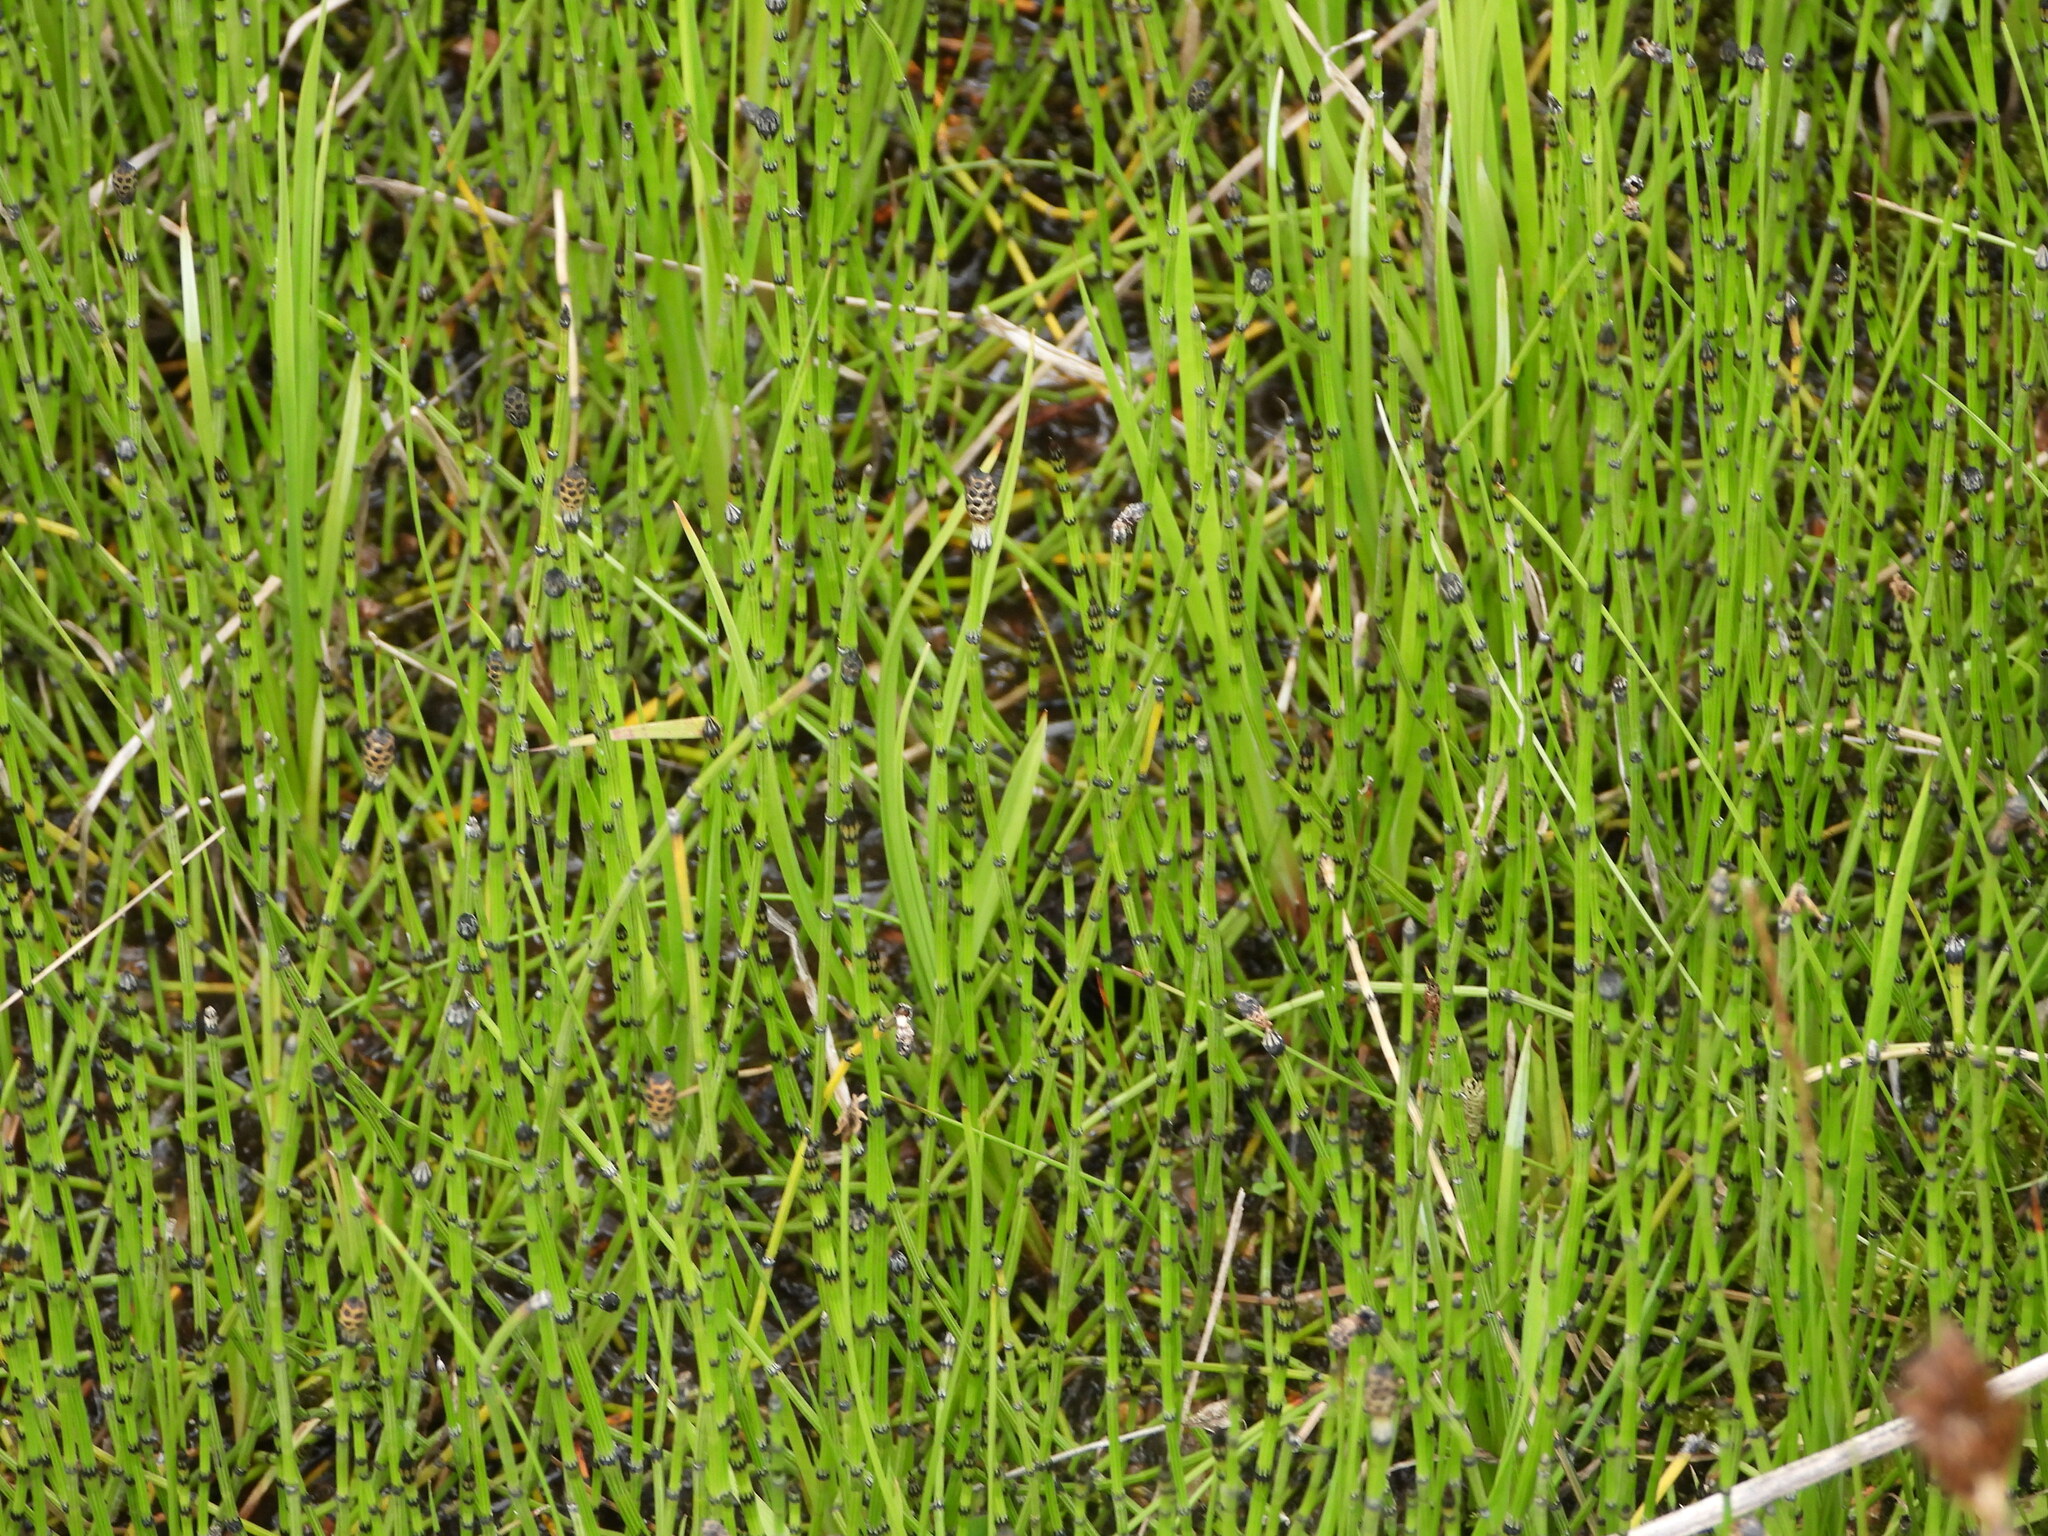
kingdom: Plantae
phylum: Tracheophyta
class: Polypodiopsida
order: Equisetales
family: Equisetaceae
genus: Equisetum
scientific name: Equisetum variegatum
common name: Variegated horsetail
